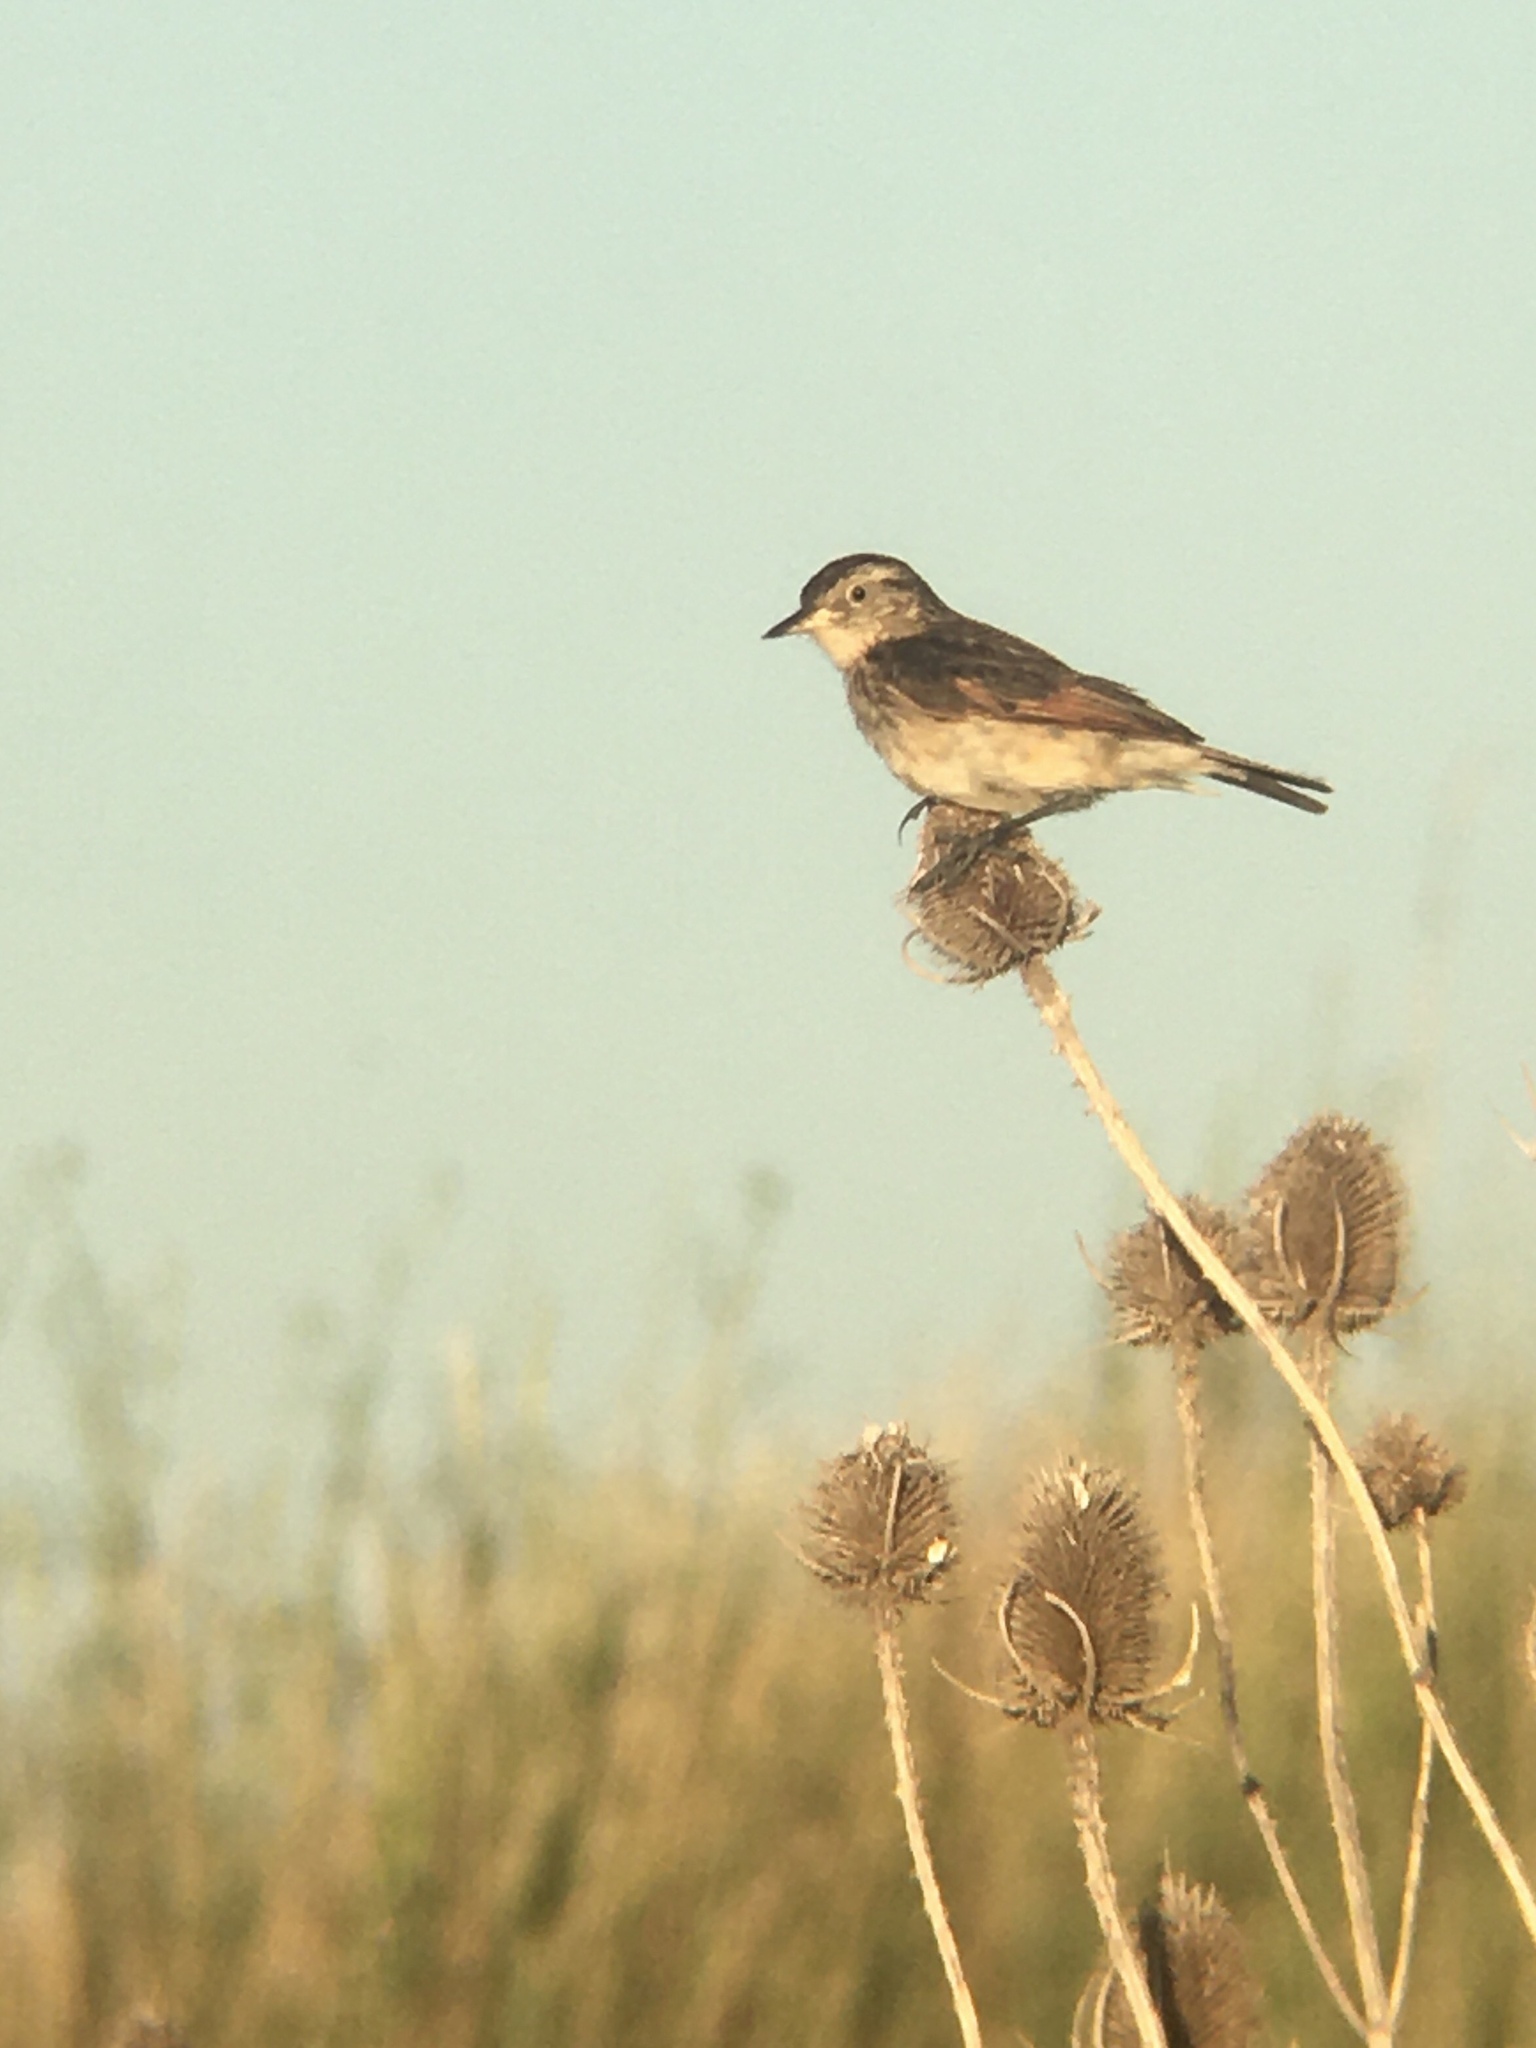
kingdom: Animalia
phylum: Chordata
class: Aves
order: Passeriformes
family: Tyrannidae
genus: Hymenops
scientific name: Hymenops perspicillatus
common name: Spectacled tyrant
